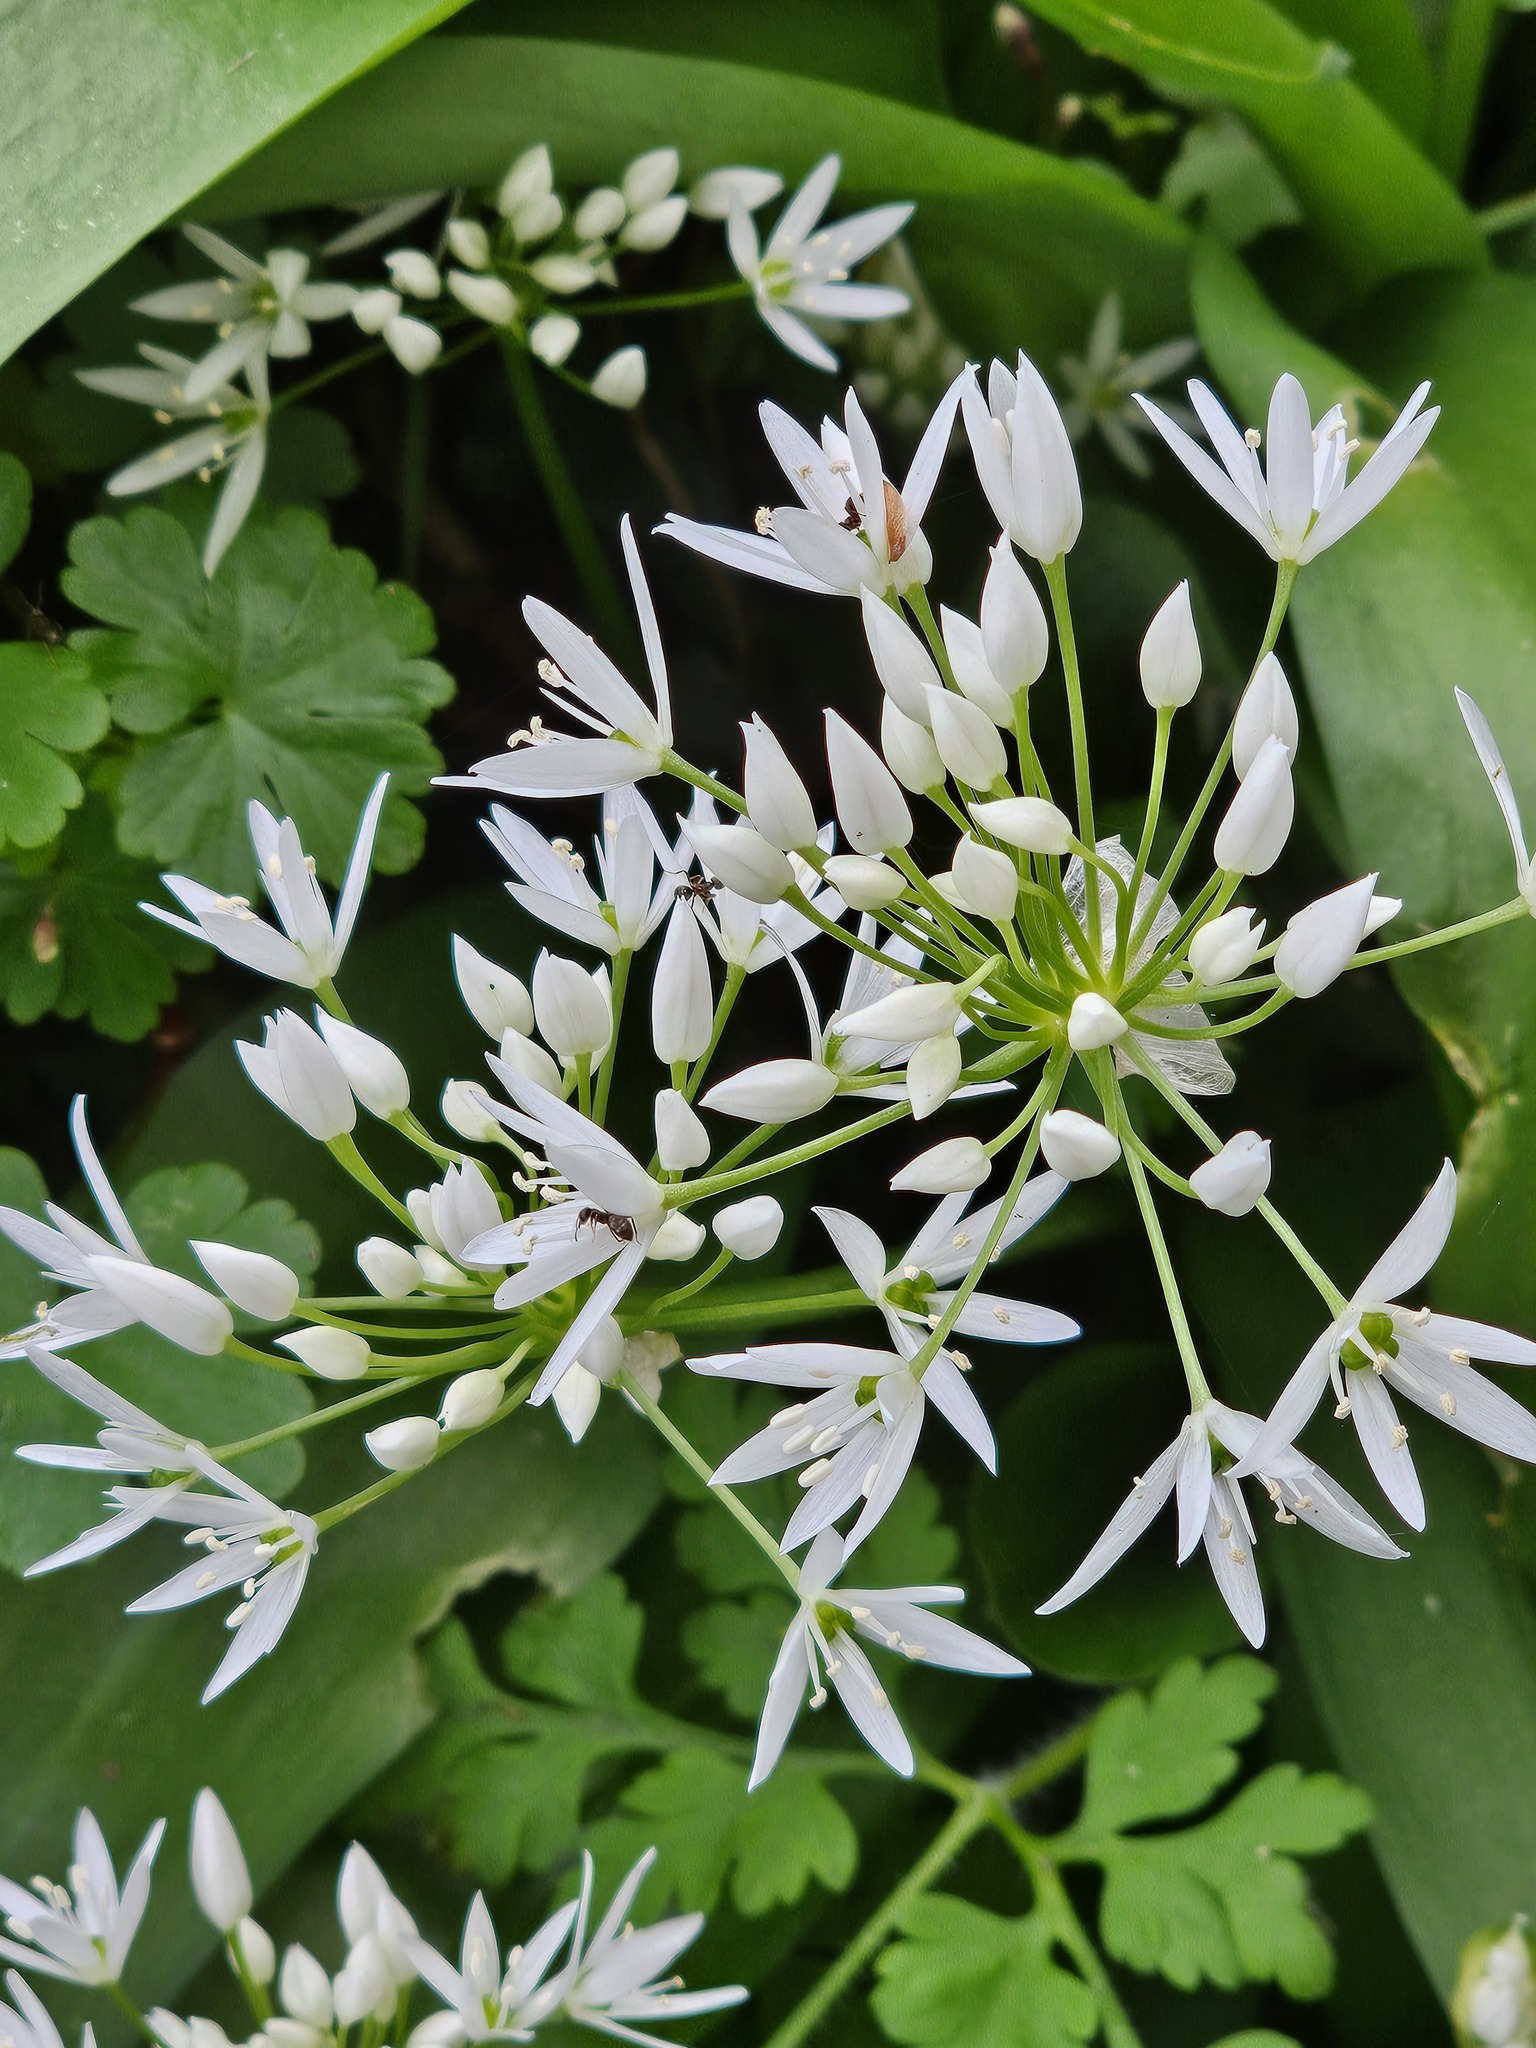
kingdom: Plantae
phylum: Tracheophyta
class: Liliopsida
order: Asparagales
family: Amaryllidaceae
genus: Allium
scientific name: Allium ursinum
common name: Ramsons
